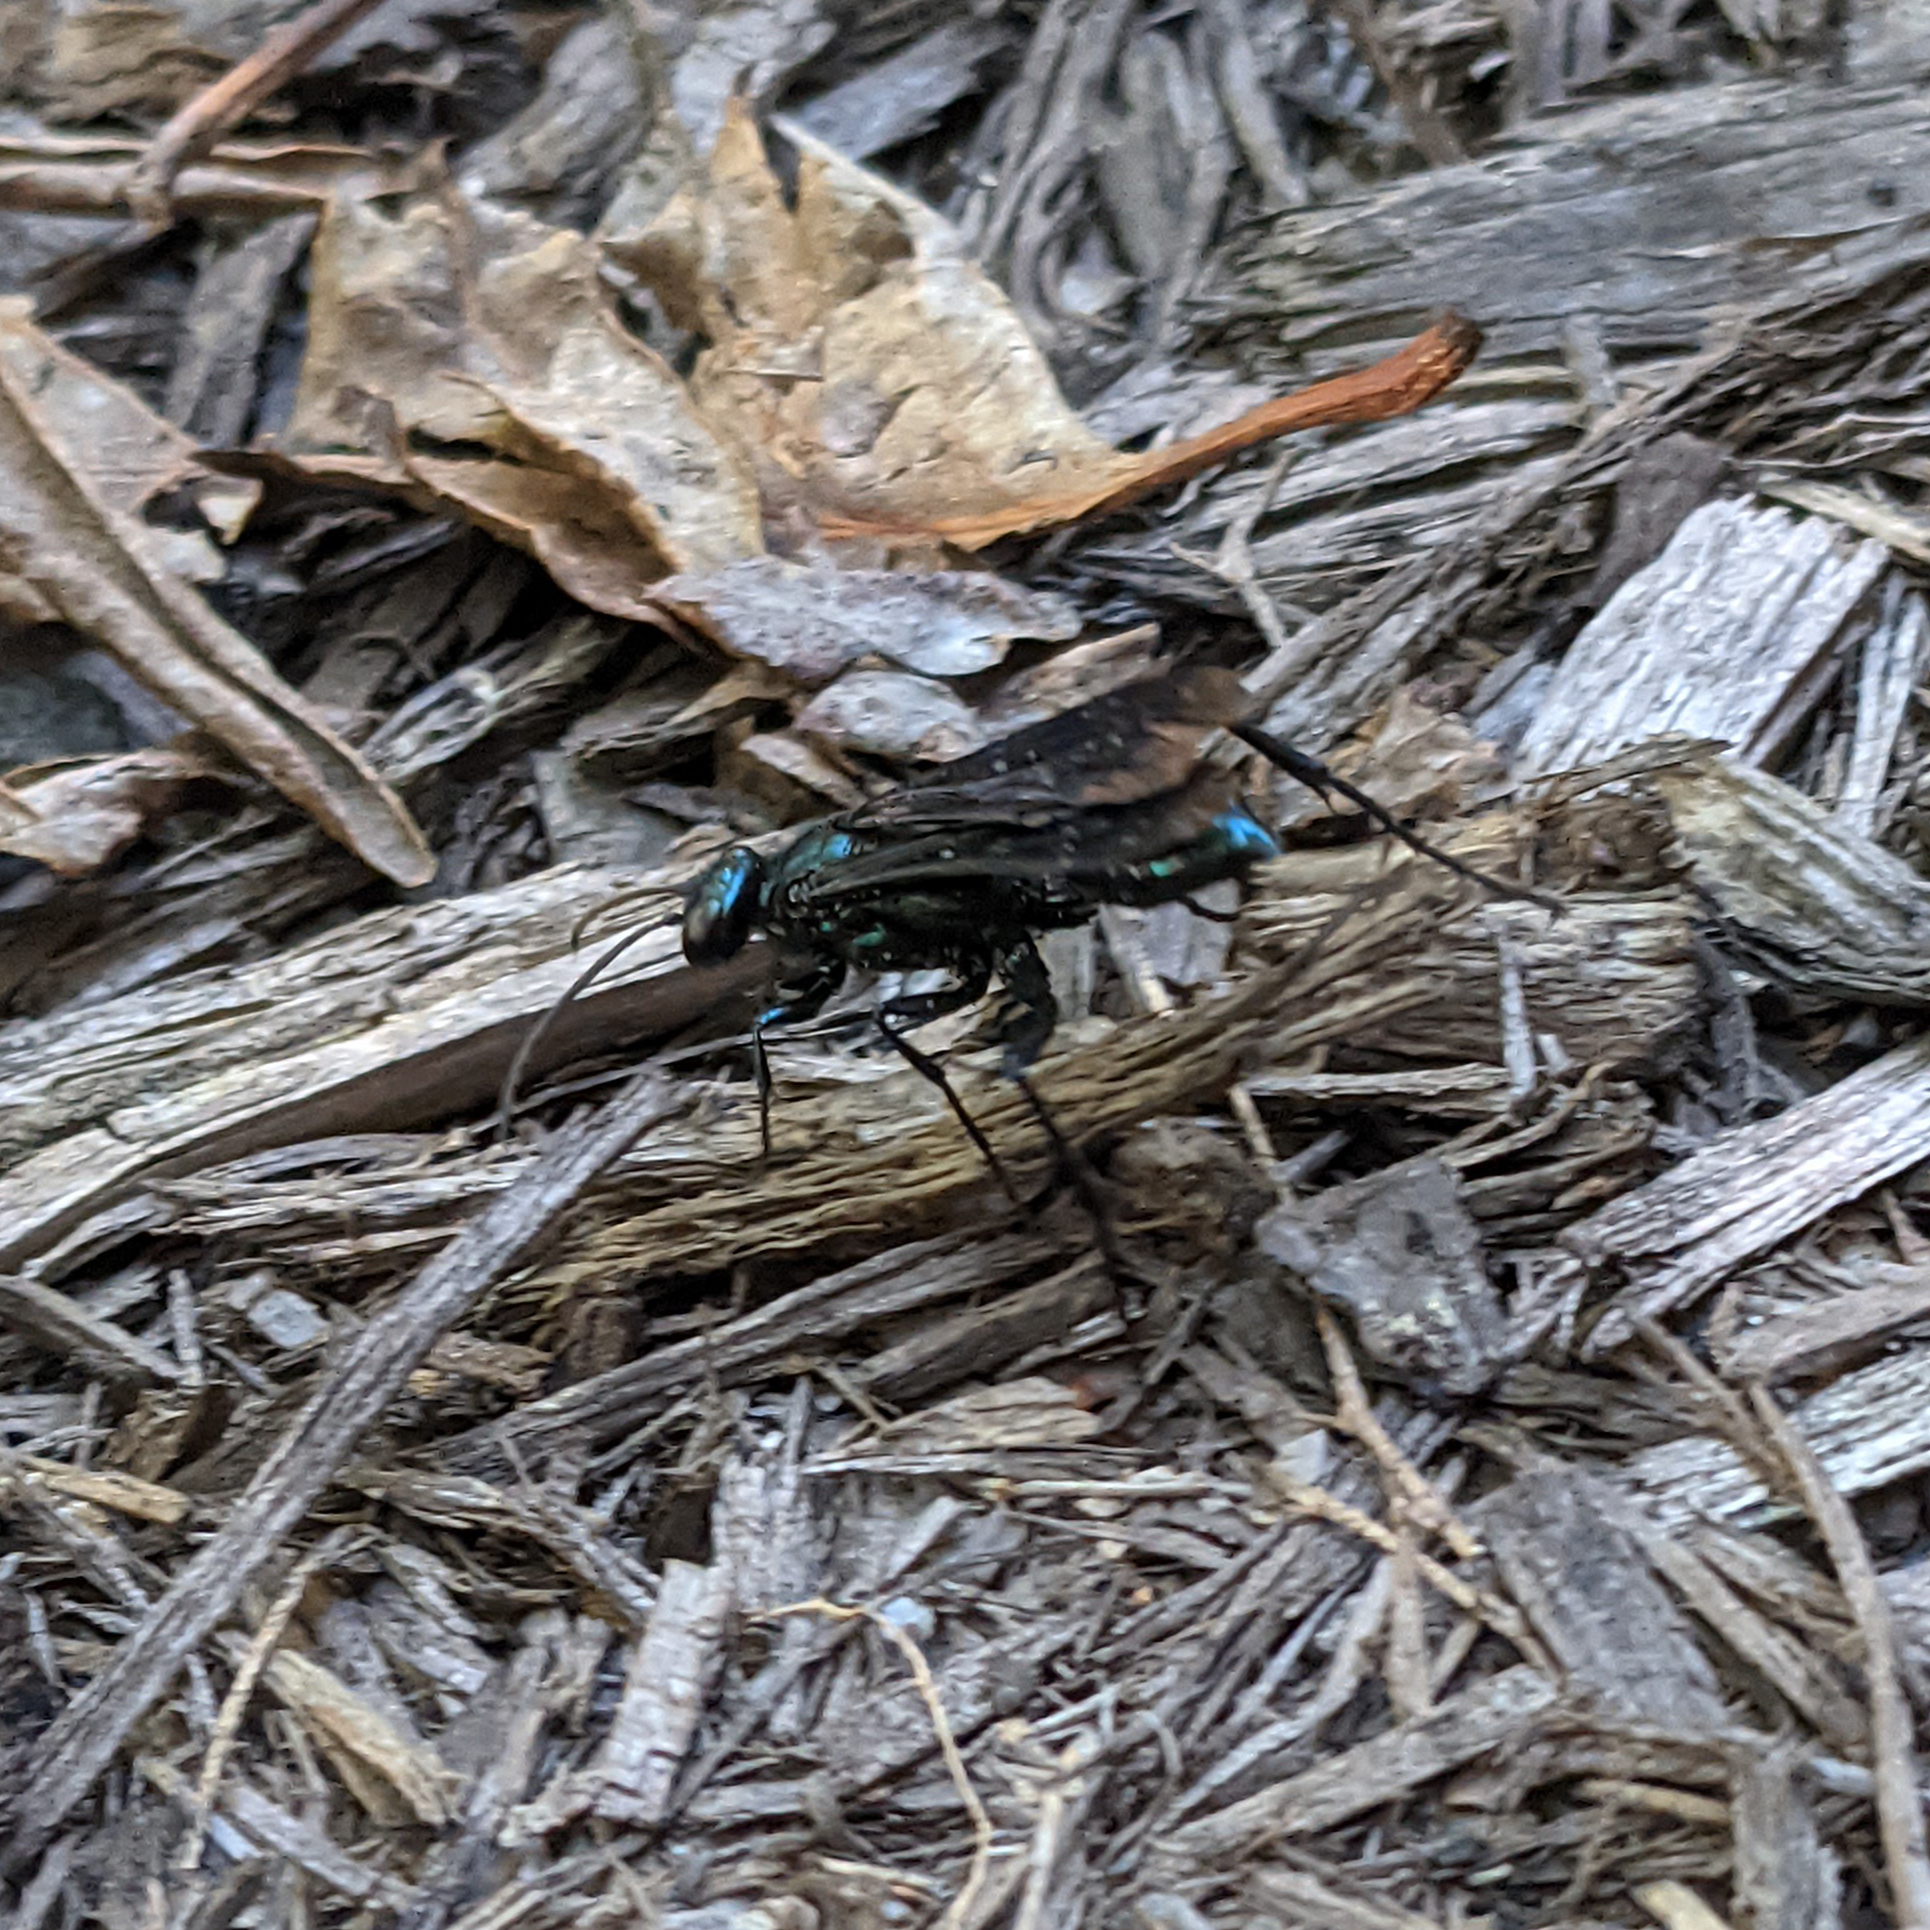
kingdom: Animalia
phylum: Arthropoda
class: Insecta
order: Hymenoptera
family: Sphecidae
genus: Chalybion
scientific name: Chalybion californicum
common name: Mud dauber
